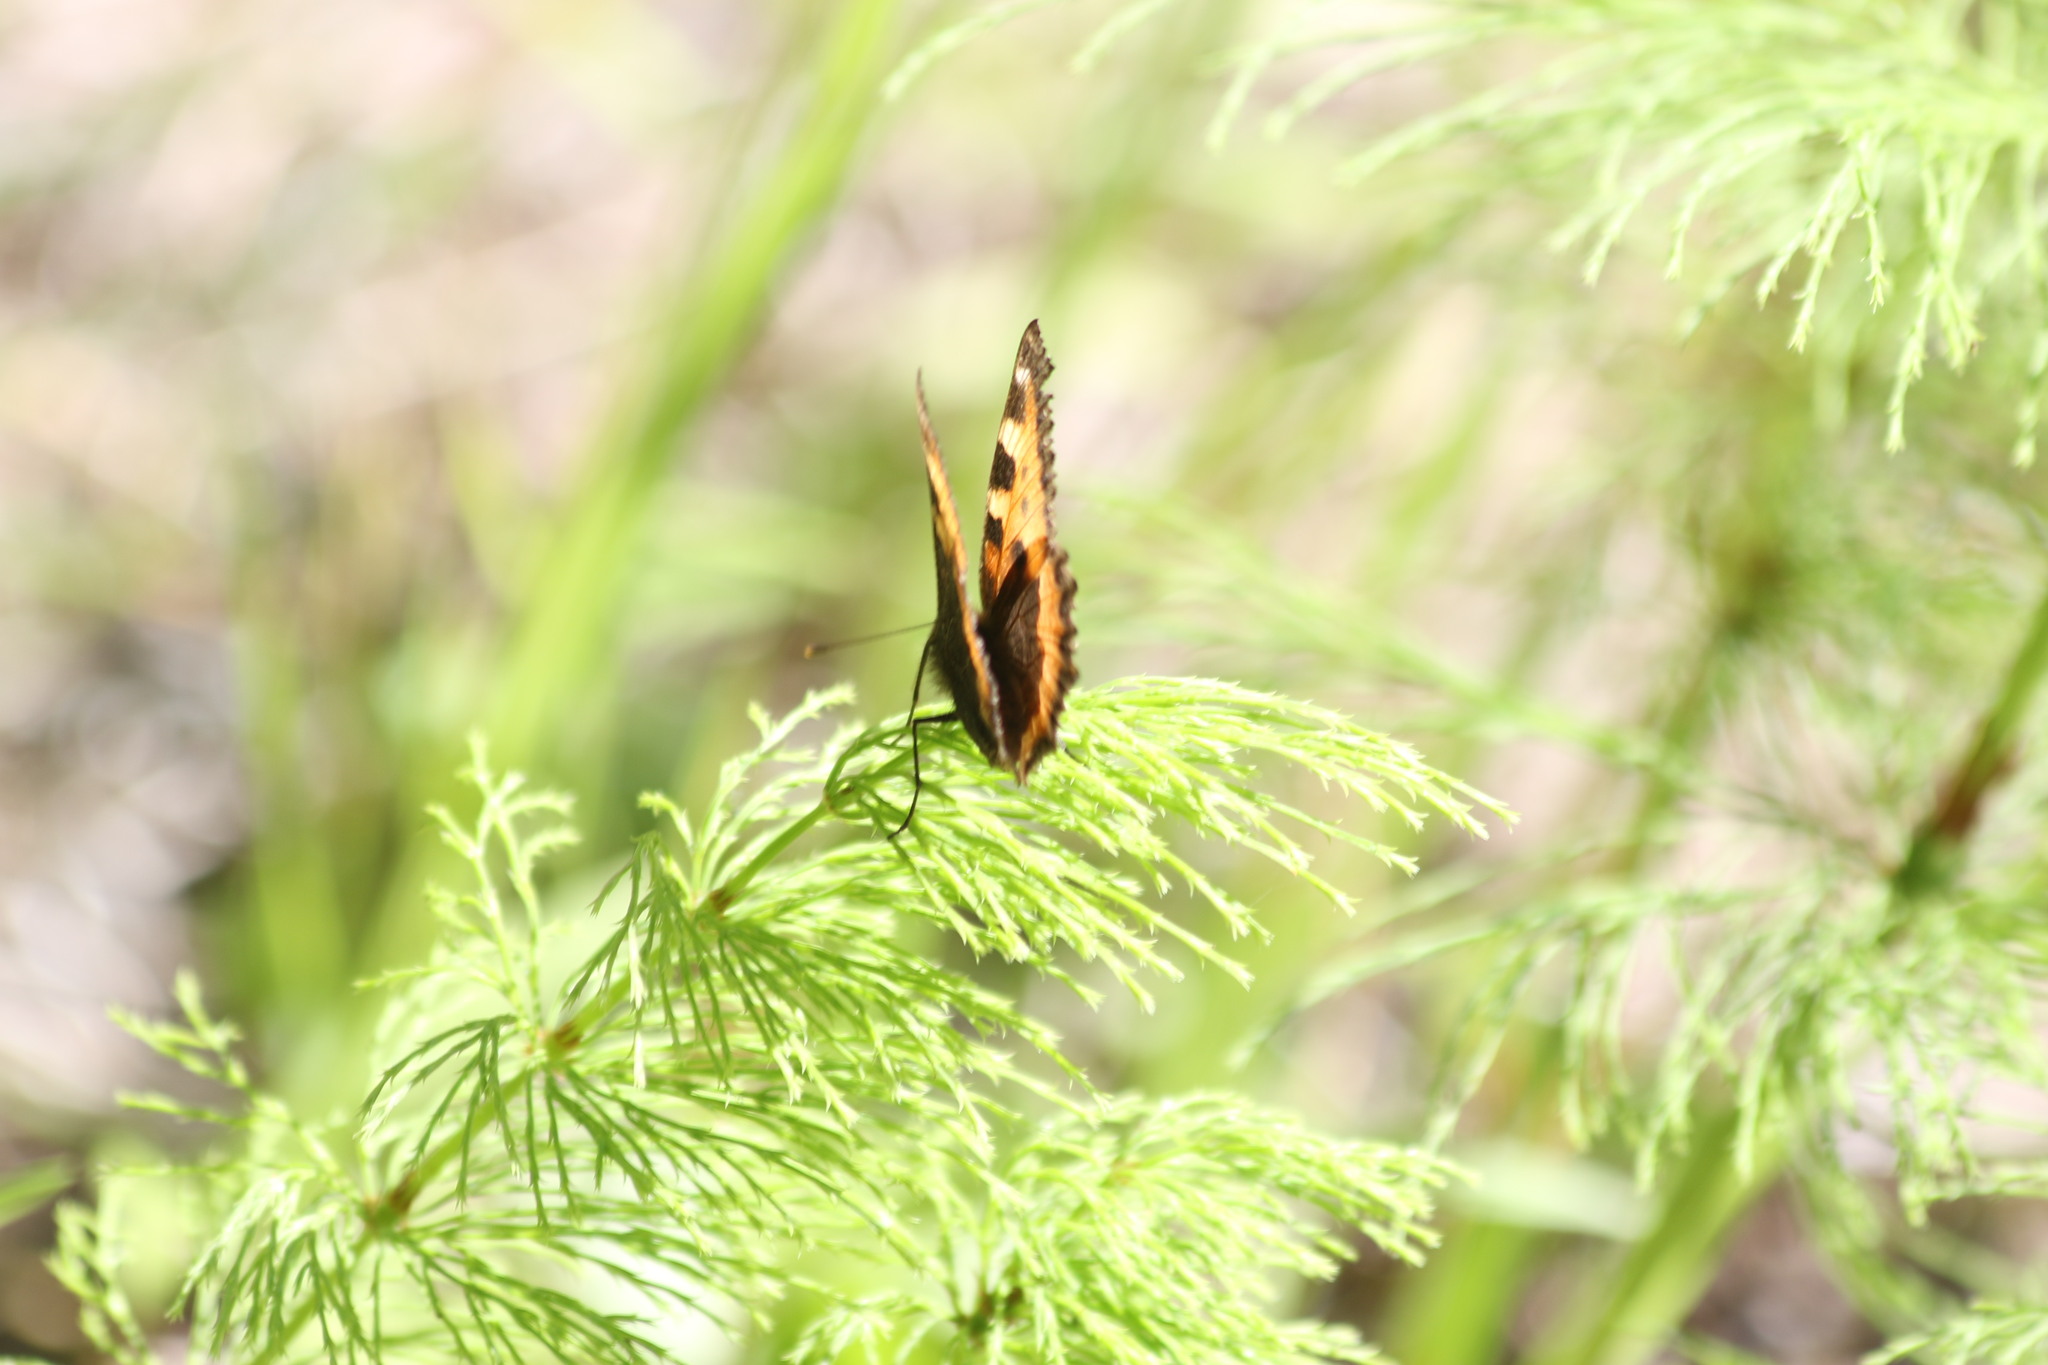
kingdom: Animalia
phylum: Arthropoda
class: Insecta
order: Lepidoptera
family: Nymphalidae
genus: Aglais
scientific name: Aglais urticae
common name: Small tortoiseshell
